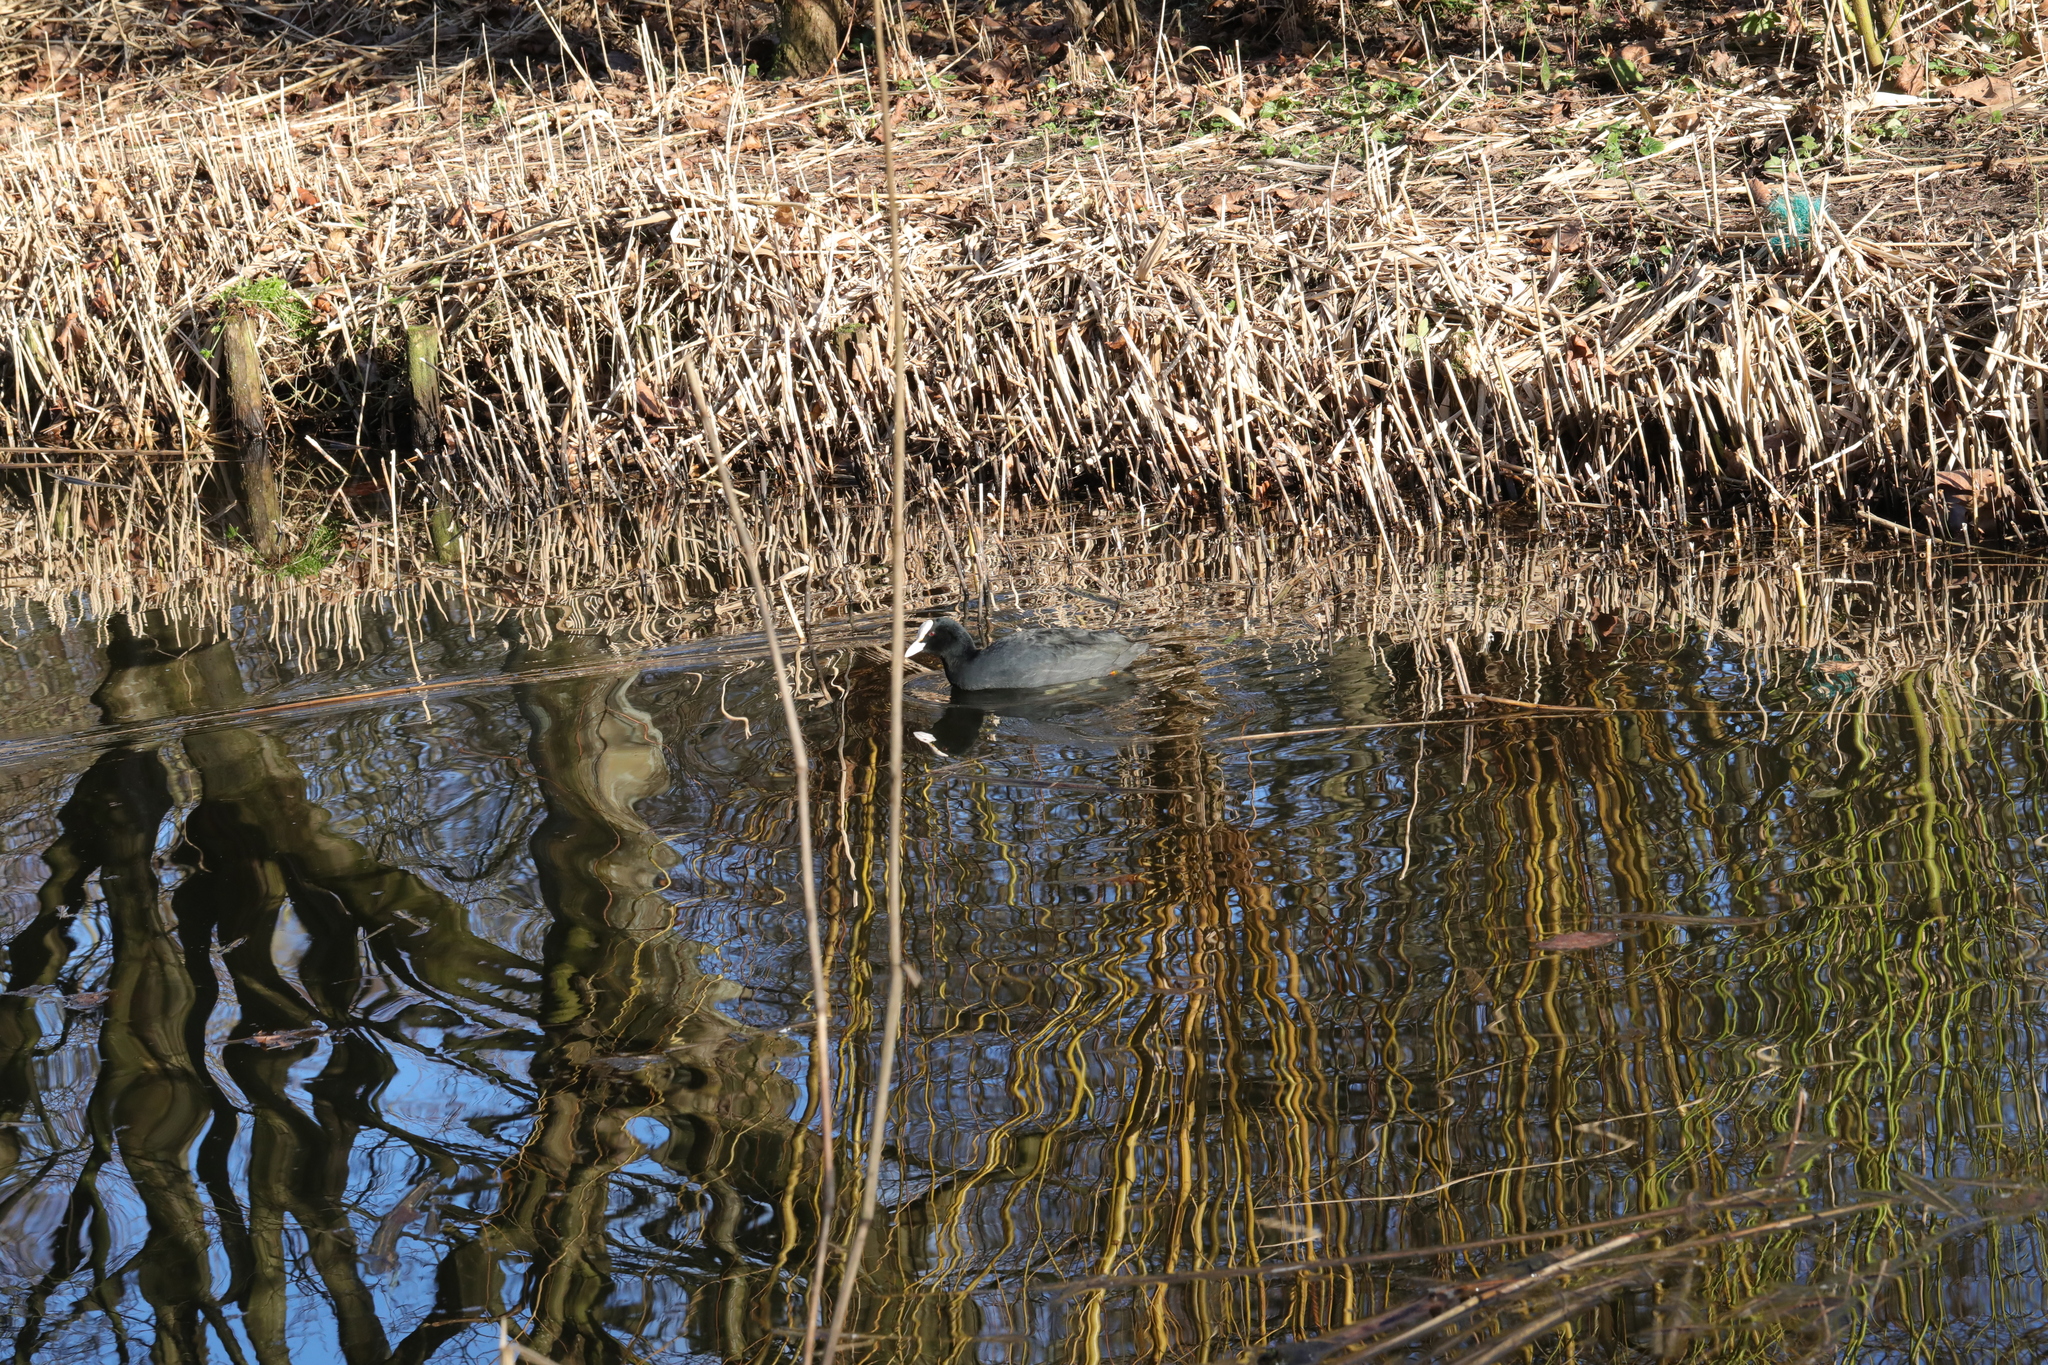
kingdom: Animalia
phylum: Chordata
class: Aves
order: Gruiformes
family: Rallidae
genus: Fulica
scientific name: Fulica atra
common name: Eurasian coot
